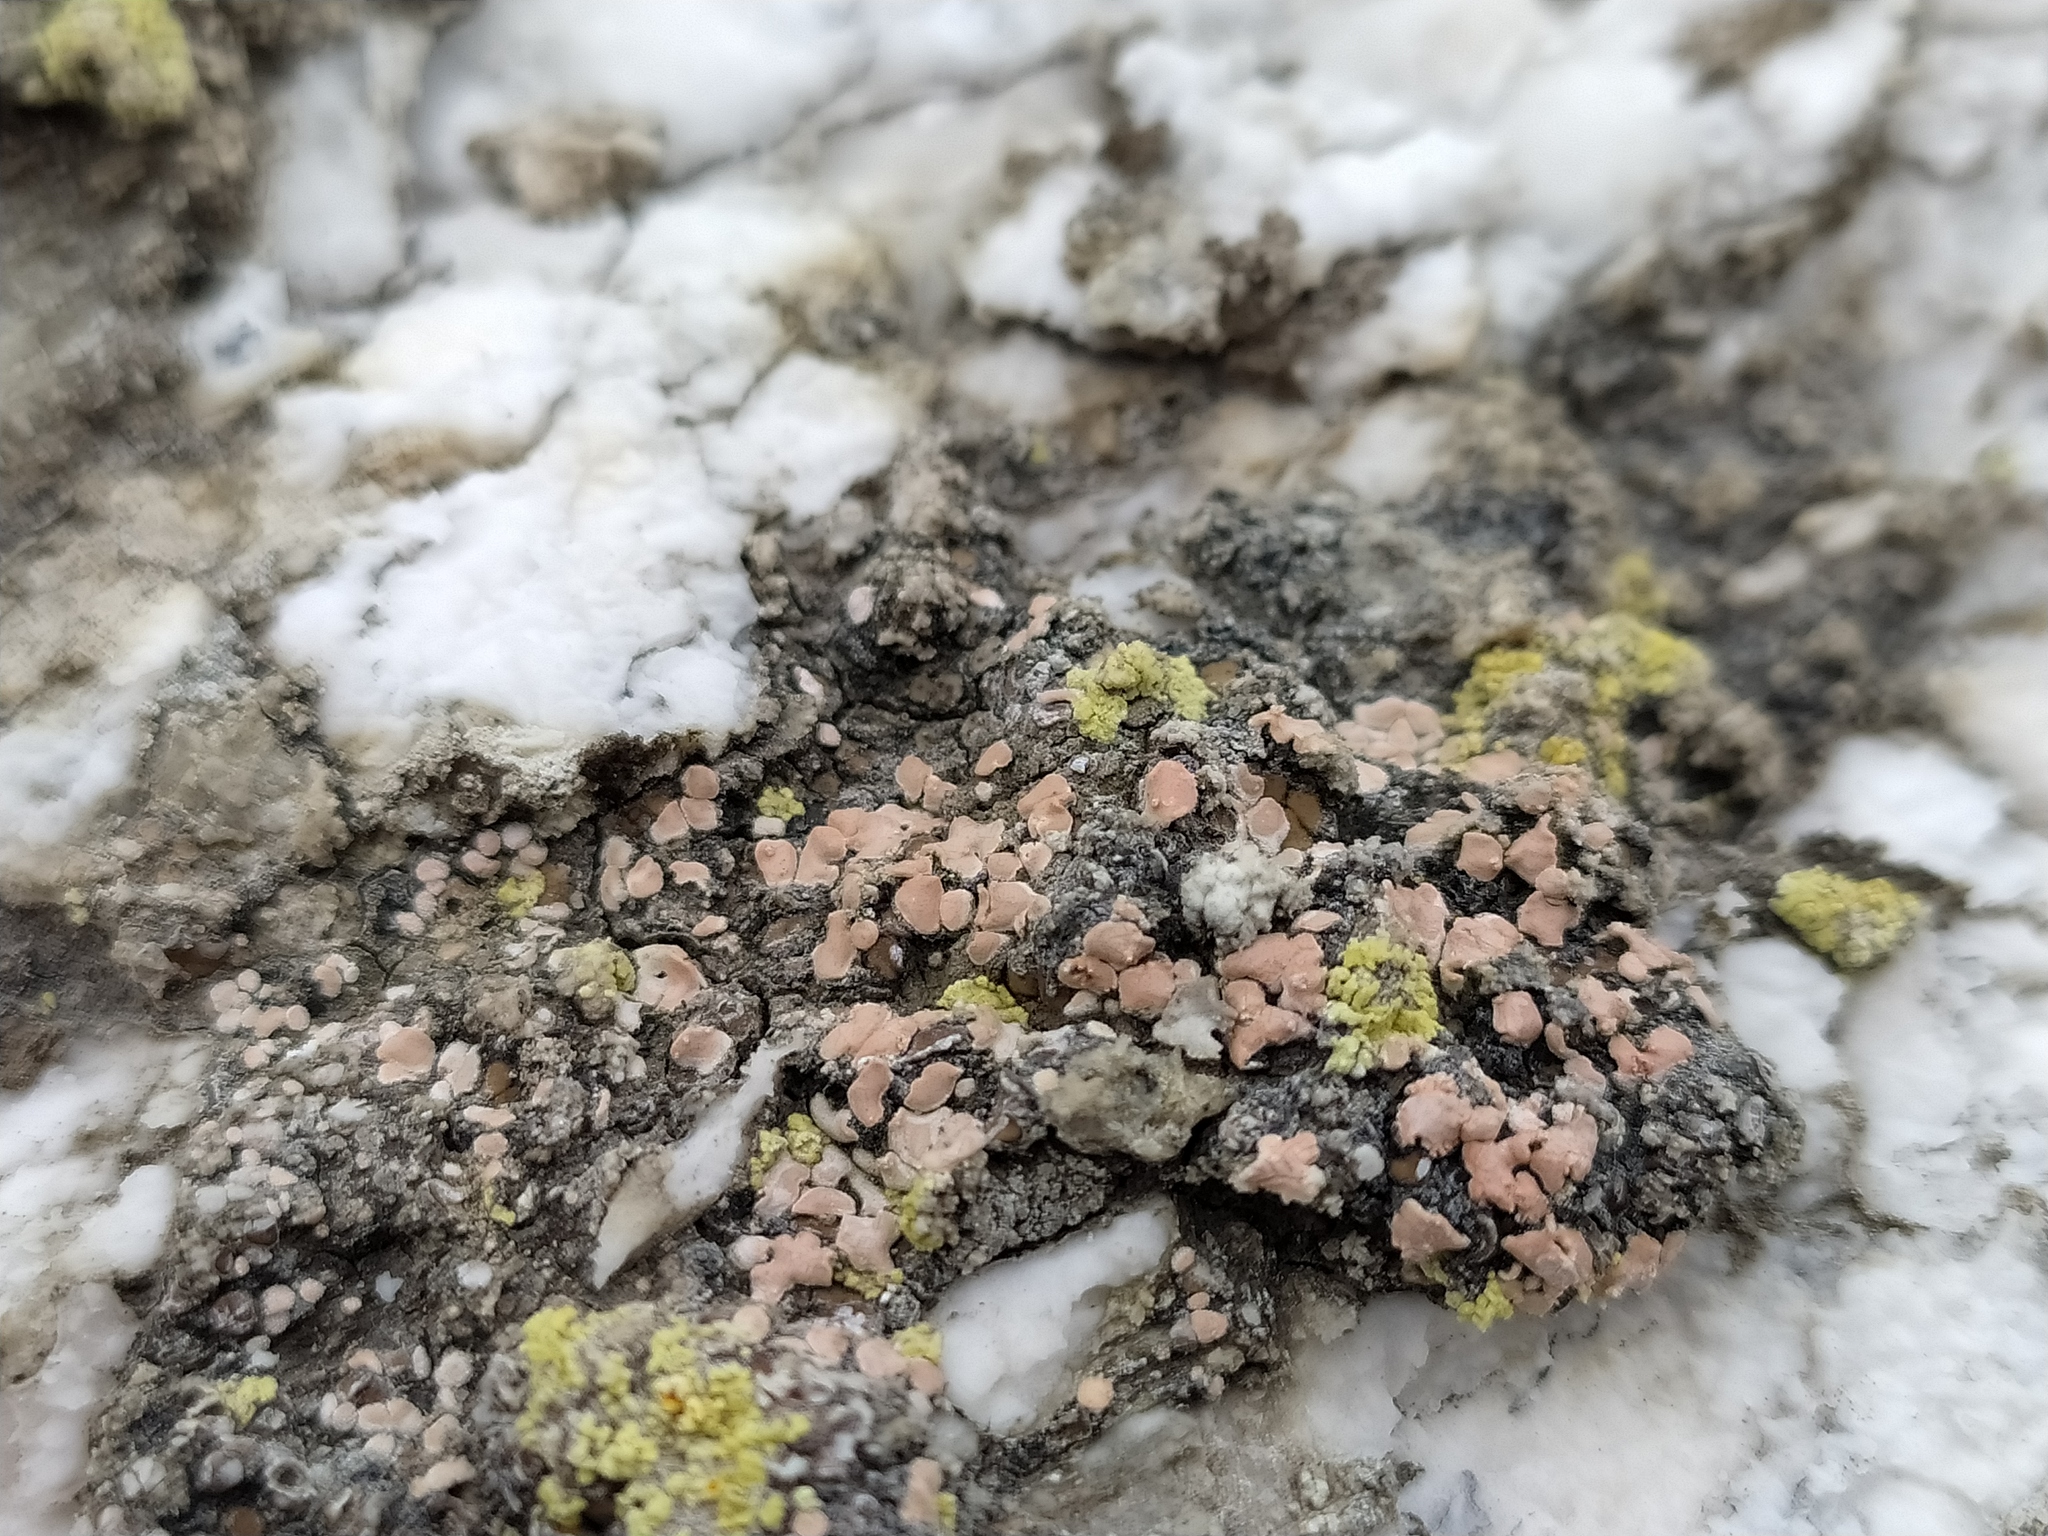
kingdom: Fungi
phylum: Ascomycota
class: Lecanoromycetes
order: Lecanorales
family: Psoraceae
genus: Psora
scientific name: Psora saviczii
